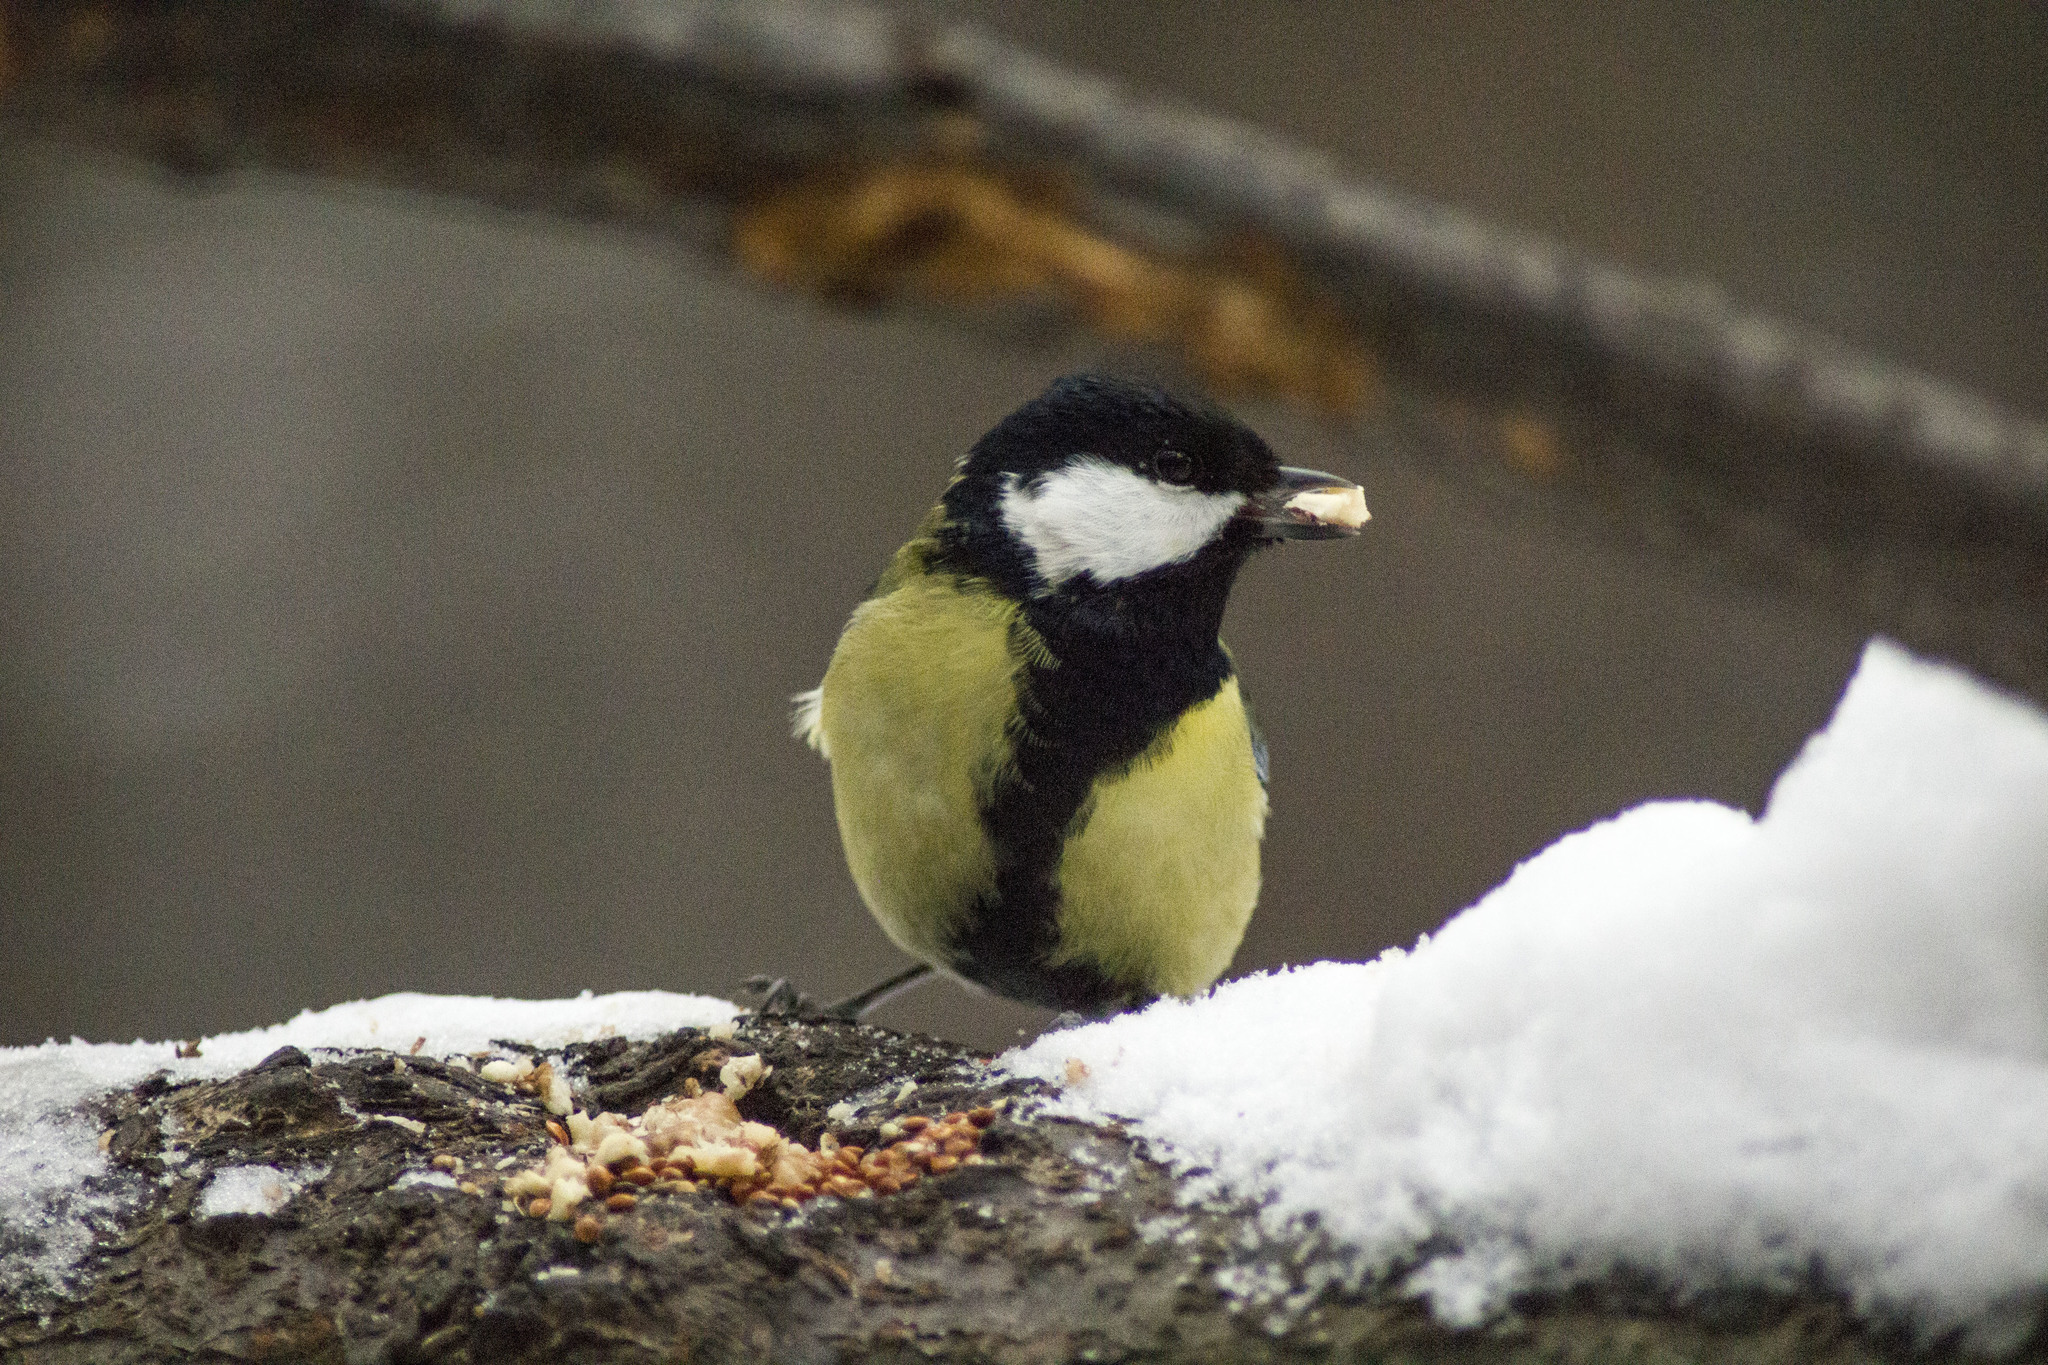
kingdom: Animalia
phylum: Chordata
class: Aves
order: Passeriformes
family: Paridae
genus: Parus
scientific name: Parus major
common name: Great tit
